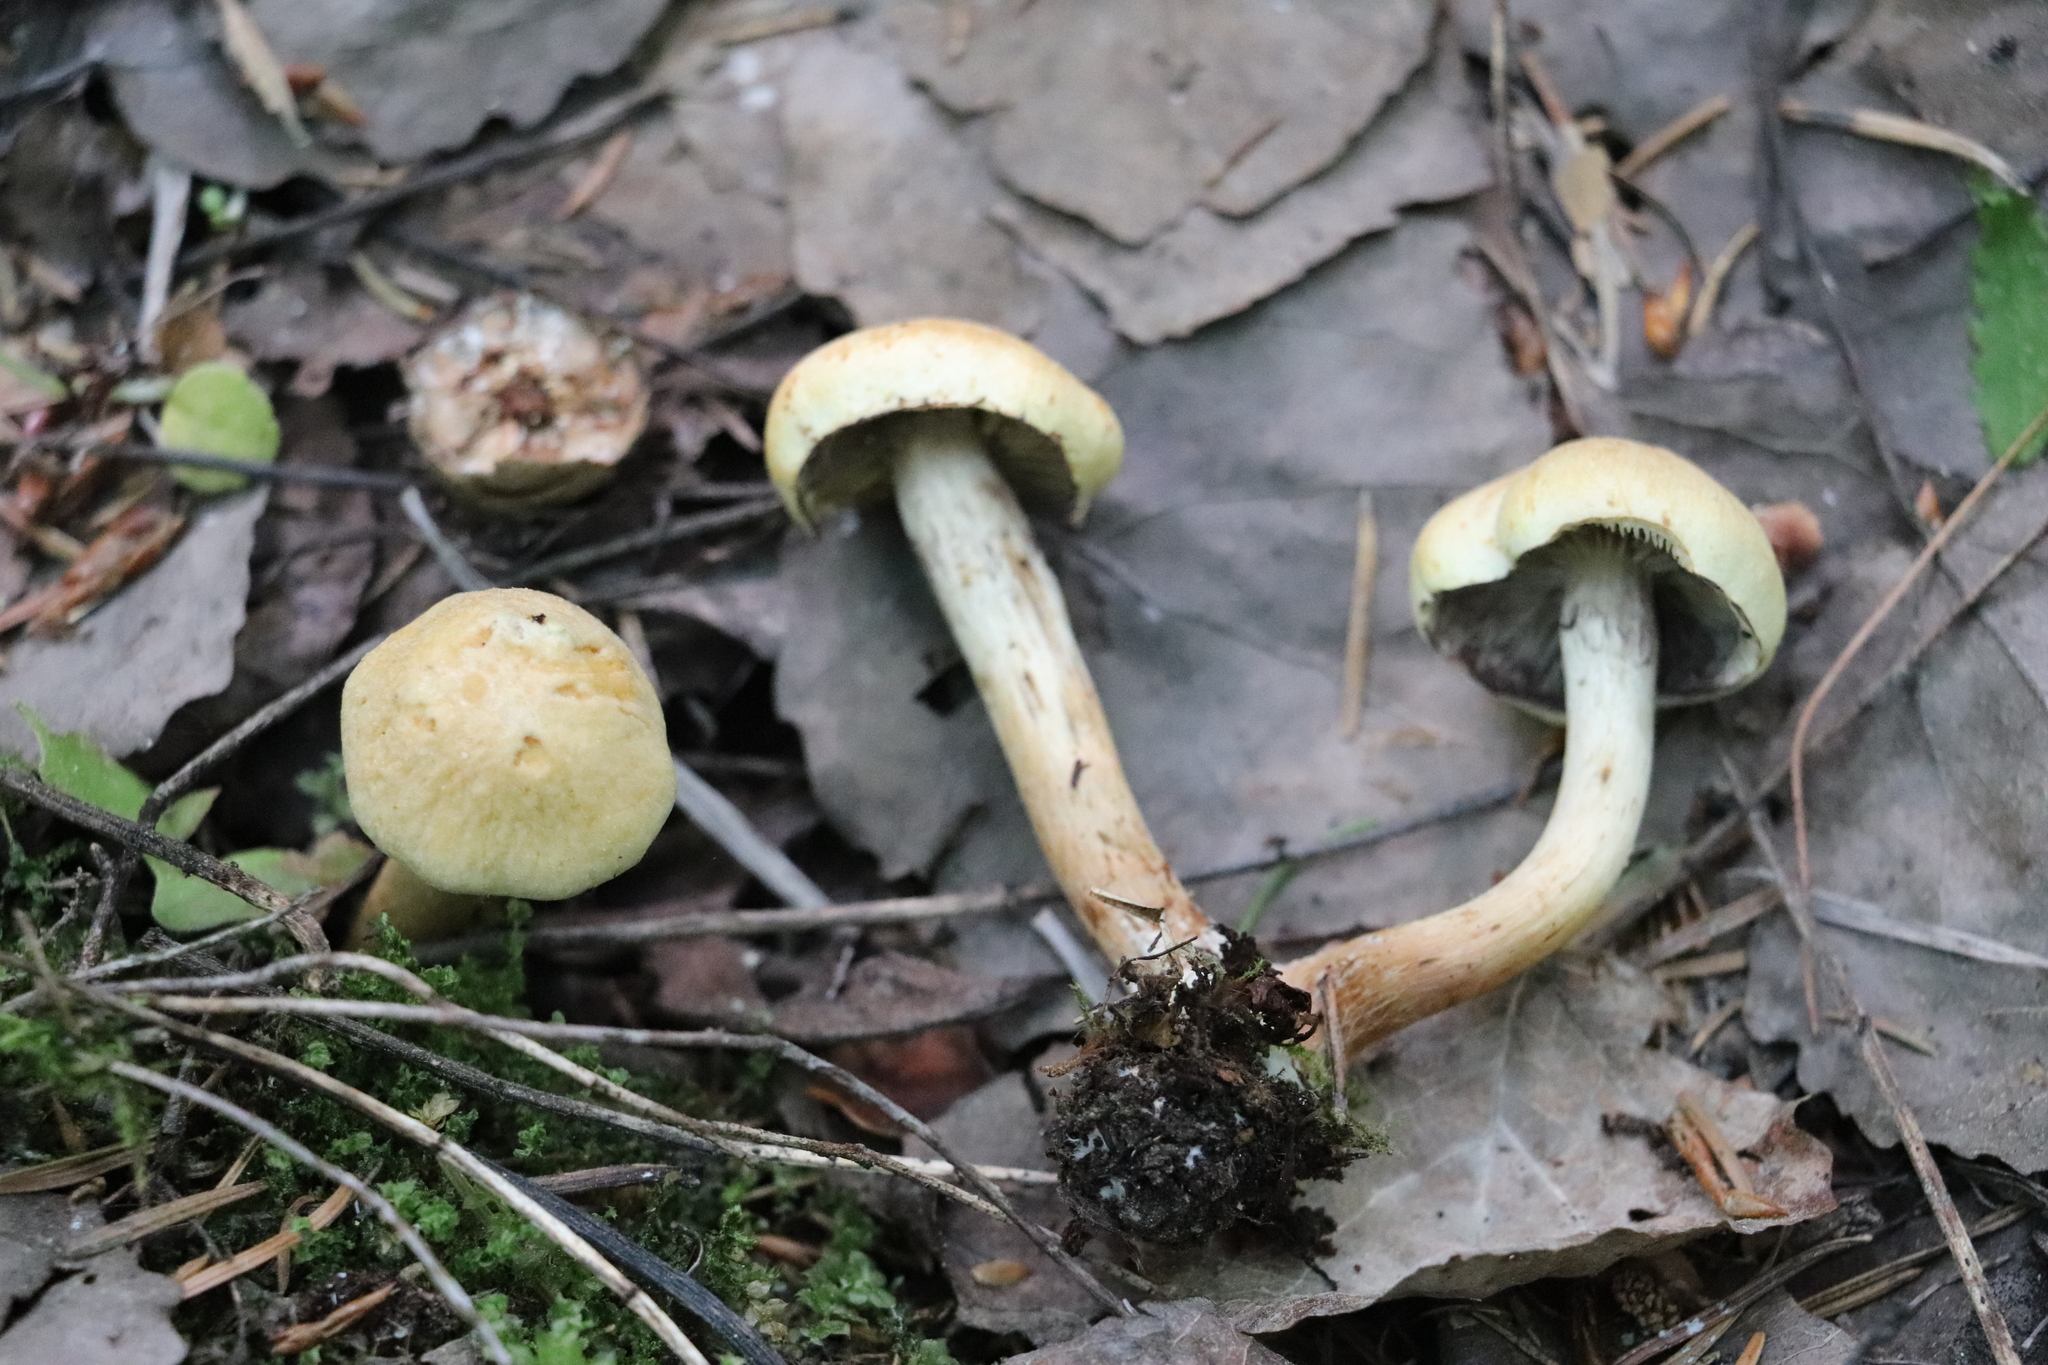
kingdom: Fungi
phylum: Basidiomycota
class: Agaricomycetes
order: Agaricales
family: Strophariaceae
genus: Hypholoma
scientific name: Hypholoma capnoides
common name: Conifer tuft
